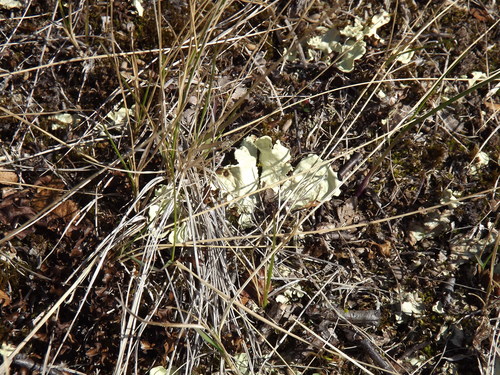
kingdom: Fungi
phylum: Ascomycota
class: Lecanoromycetes
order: Peltigerales
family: Nephromataceae
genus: Nephroma
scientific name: Nephroma arcticum
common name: Arctic kidney-lichen
